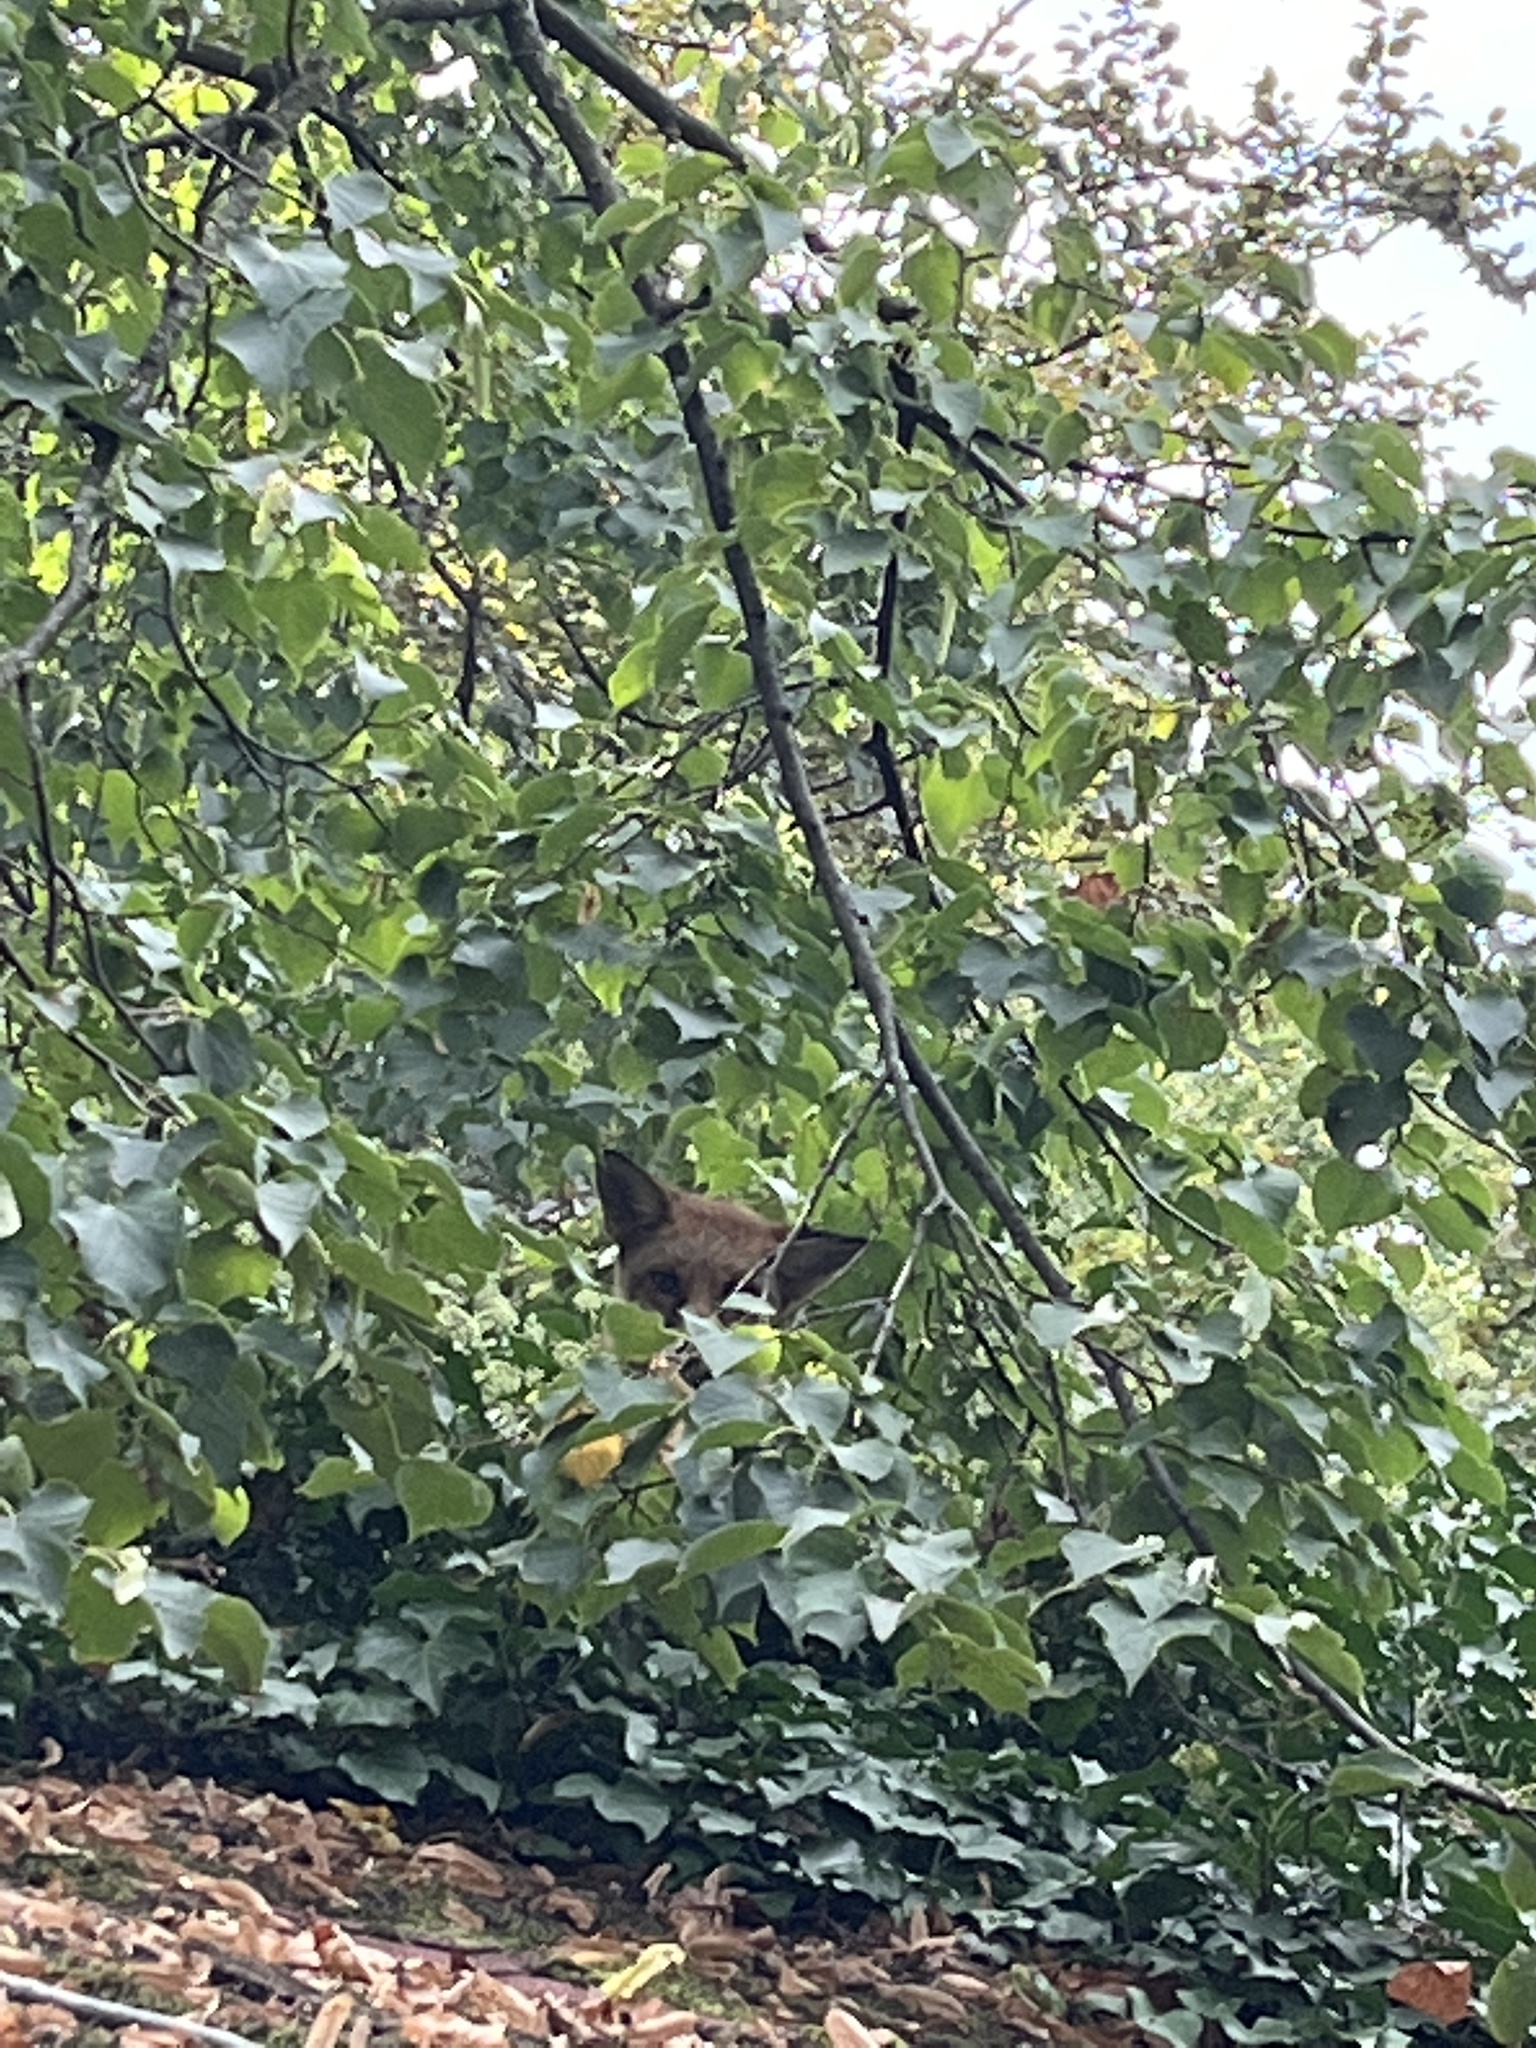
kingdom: Animalia
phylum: Chordata
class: Mammalia
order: Carnivora
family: Canidae
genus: Vulpes
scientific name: Vulpes vulpes
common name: Red fox
